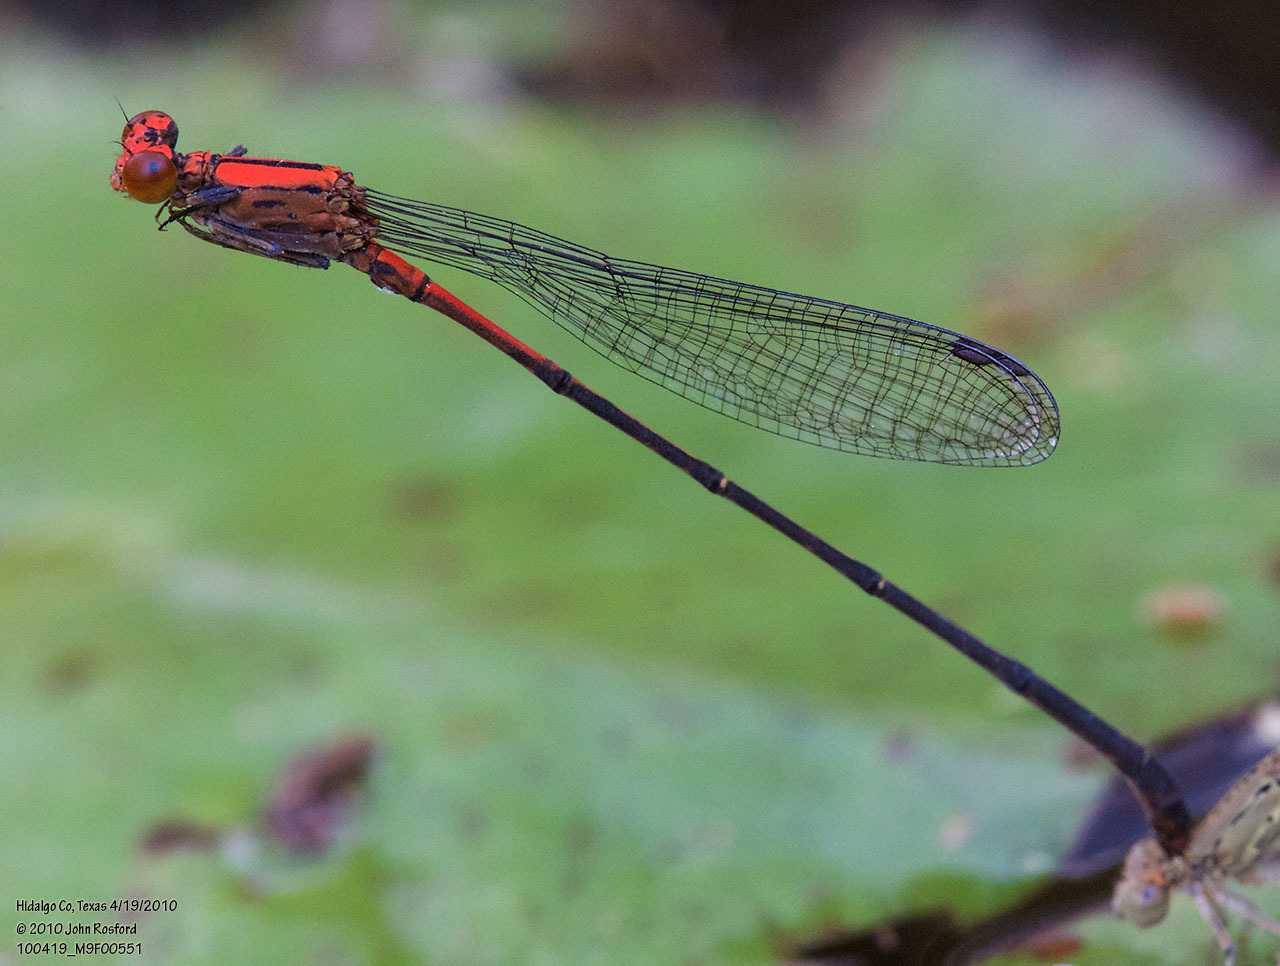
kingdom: Animalia
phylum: Arthropoda
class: Insecta
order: Odonata
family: Coenagrionidae
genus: Neoneura
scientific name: Neoneura amelia
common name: Amelia’s threadtail
